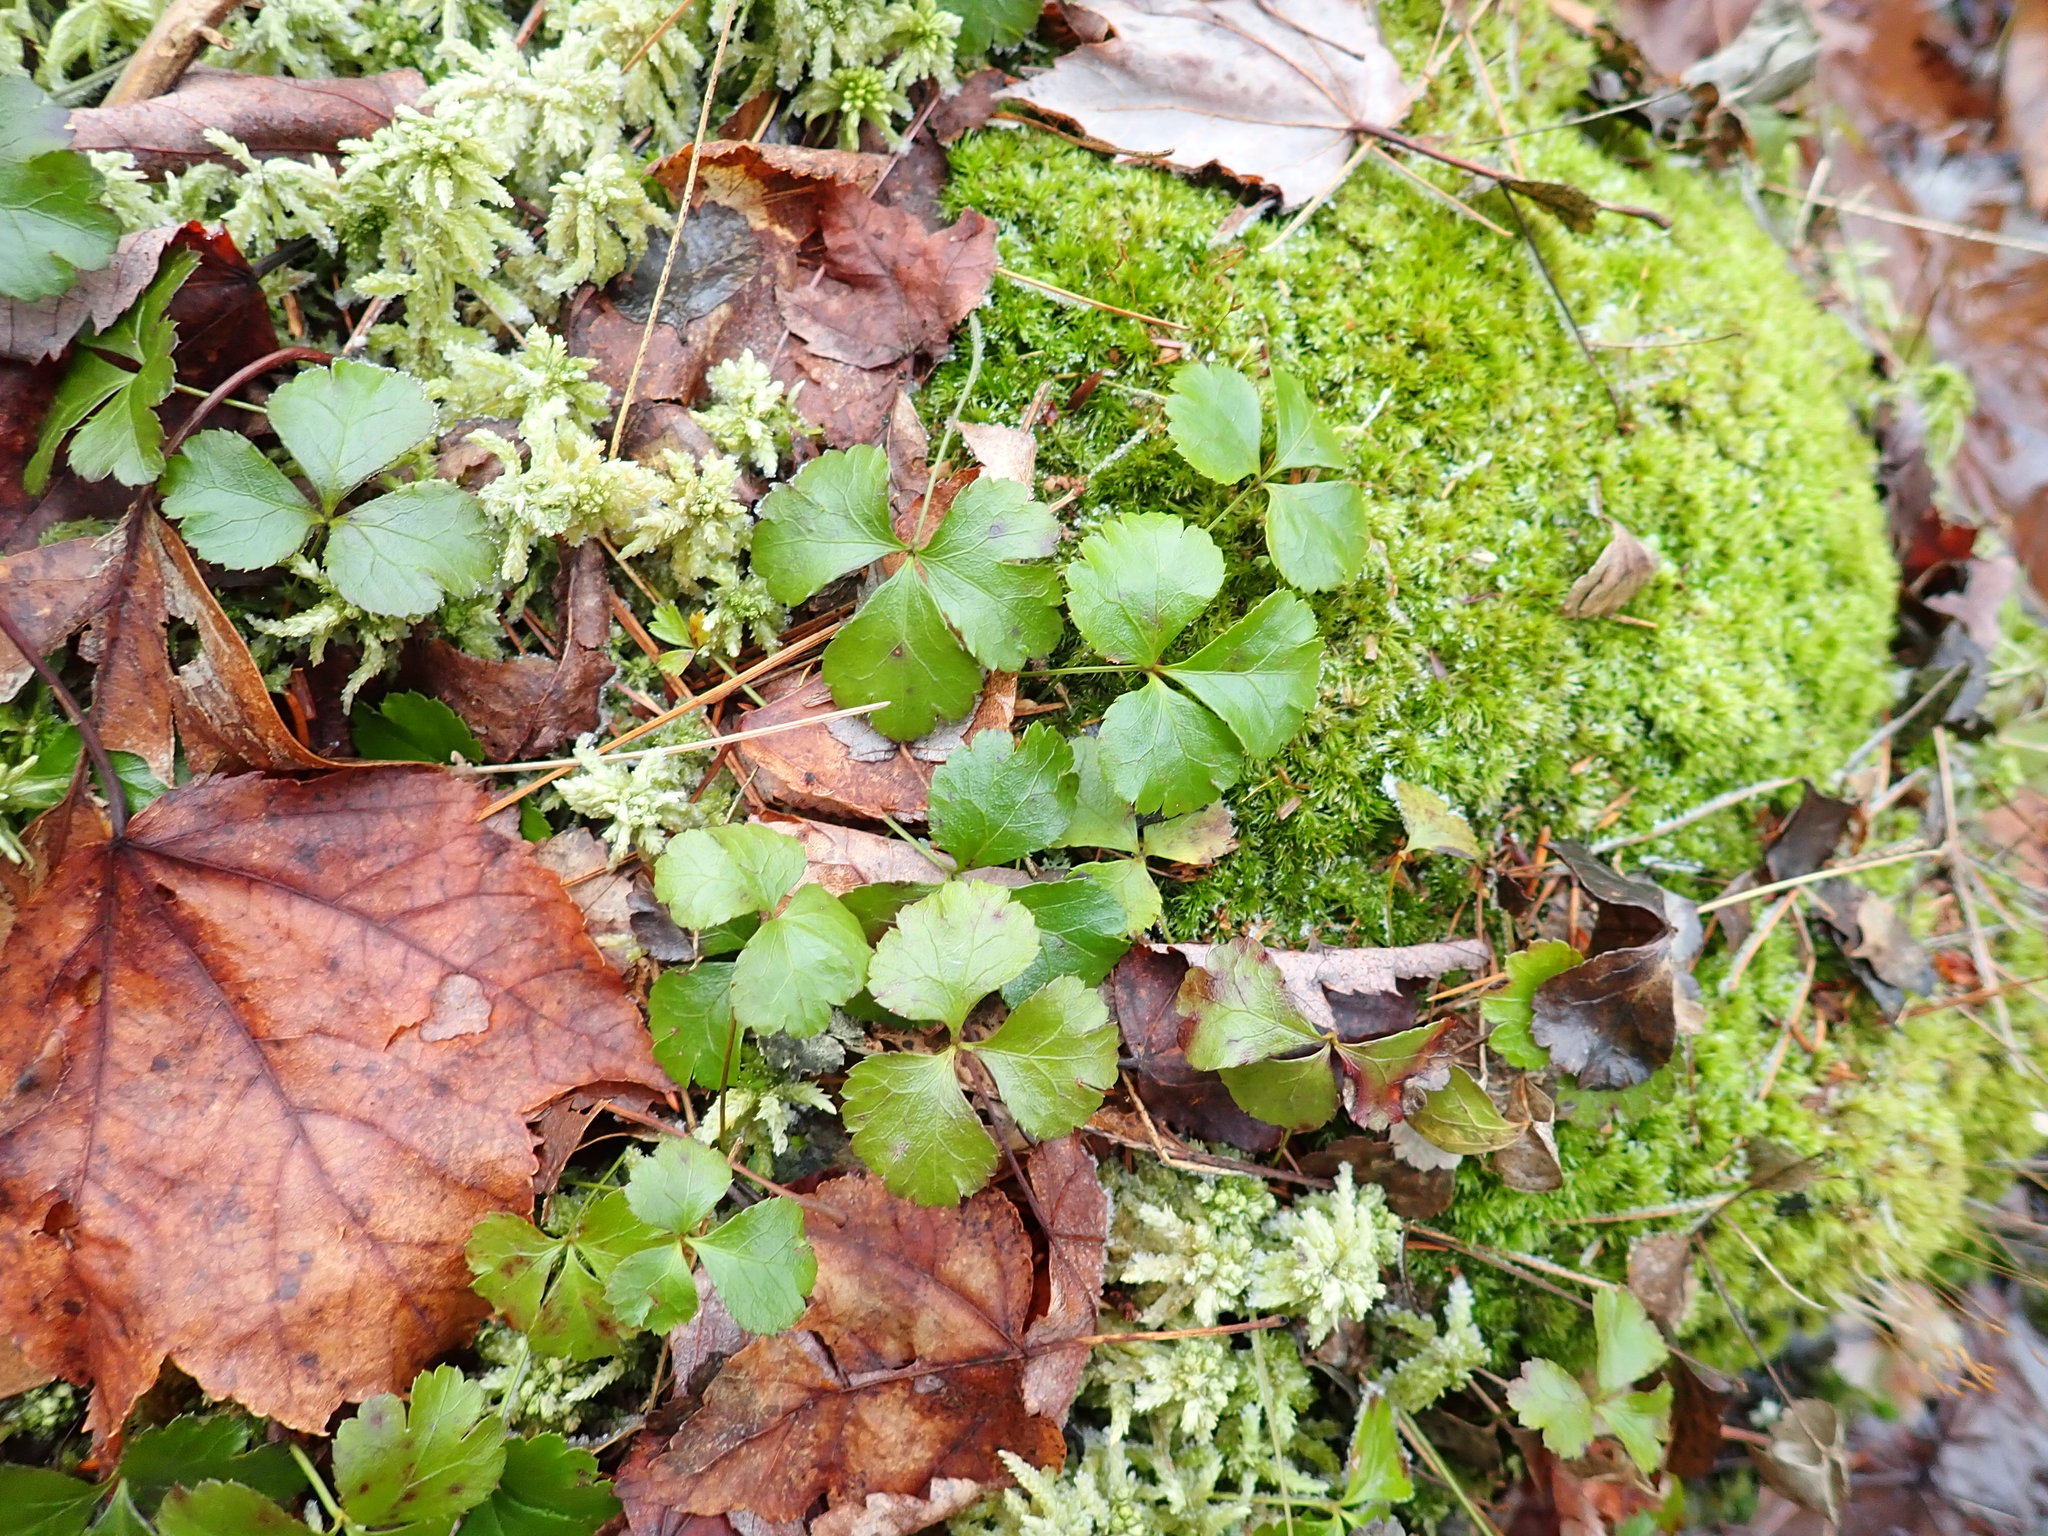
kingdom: Plantae
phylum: Tracheophyta
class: Magnoliopsida
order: Ranunculales
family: Ranunculaceae
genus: Coptis
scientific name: Coptis trifolia
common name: Canker-root
